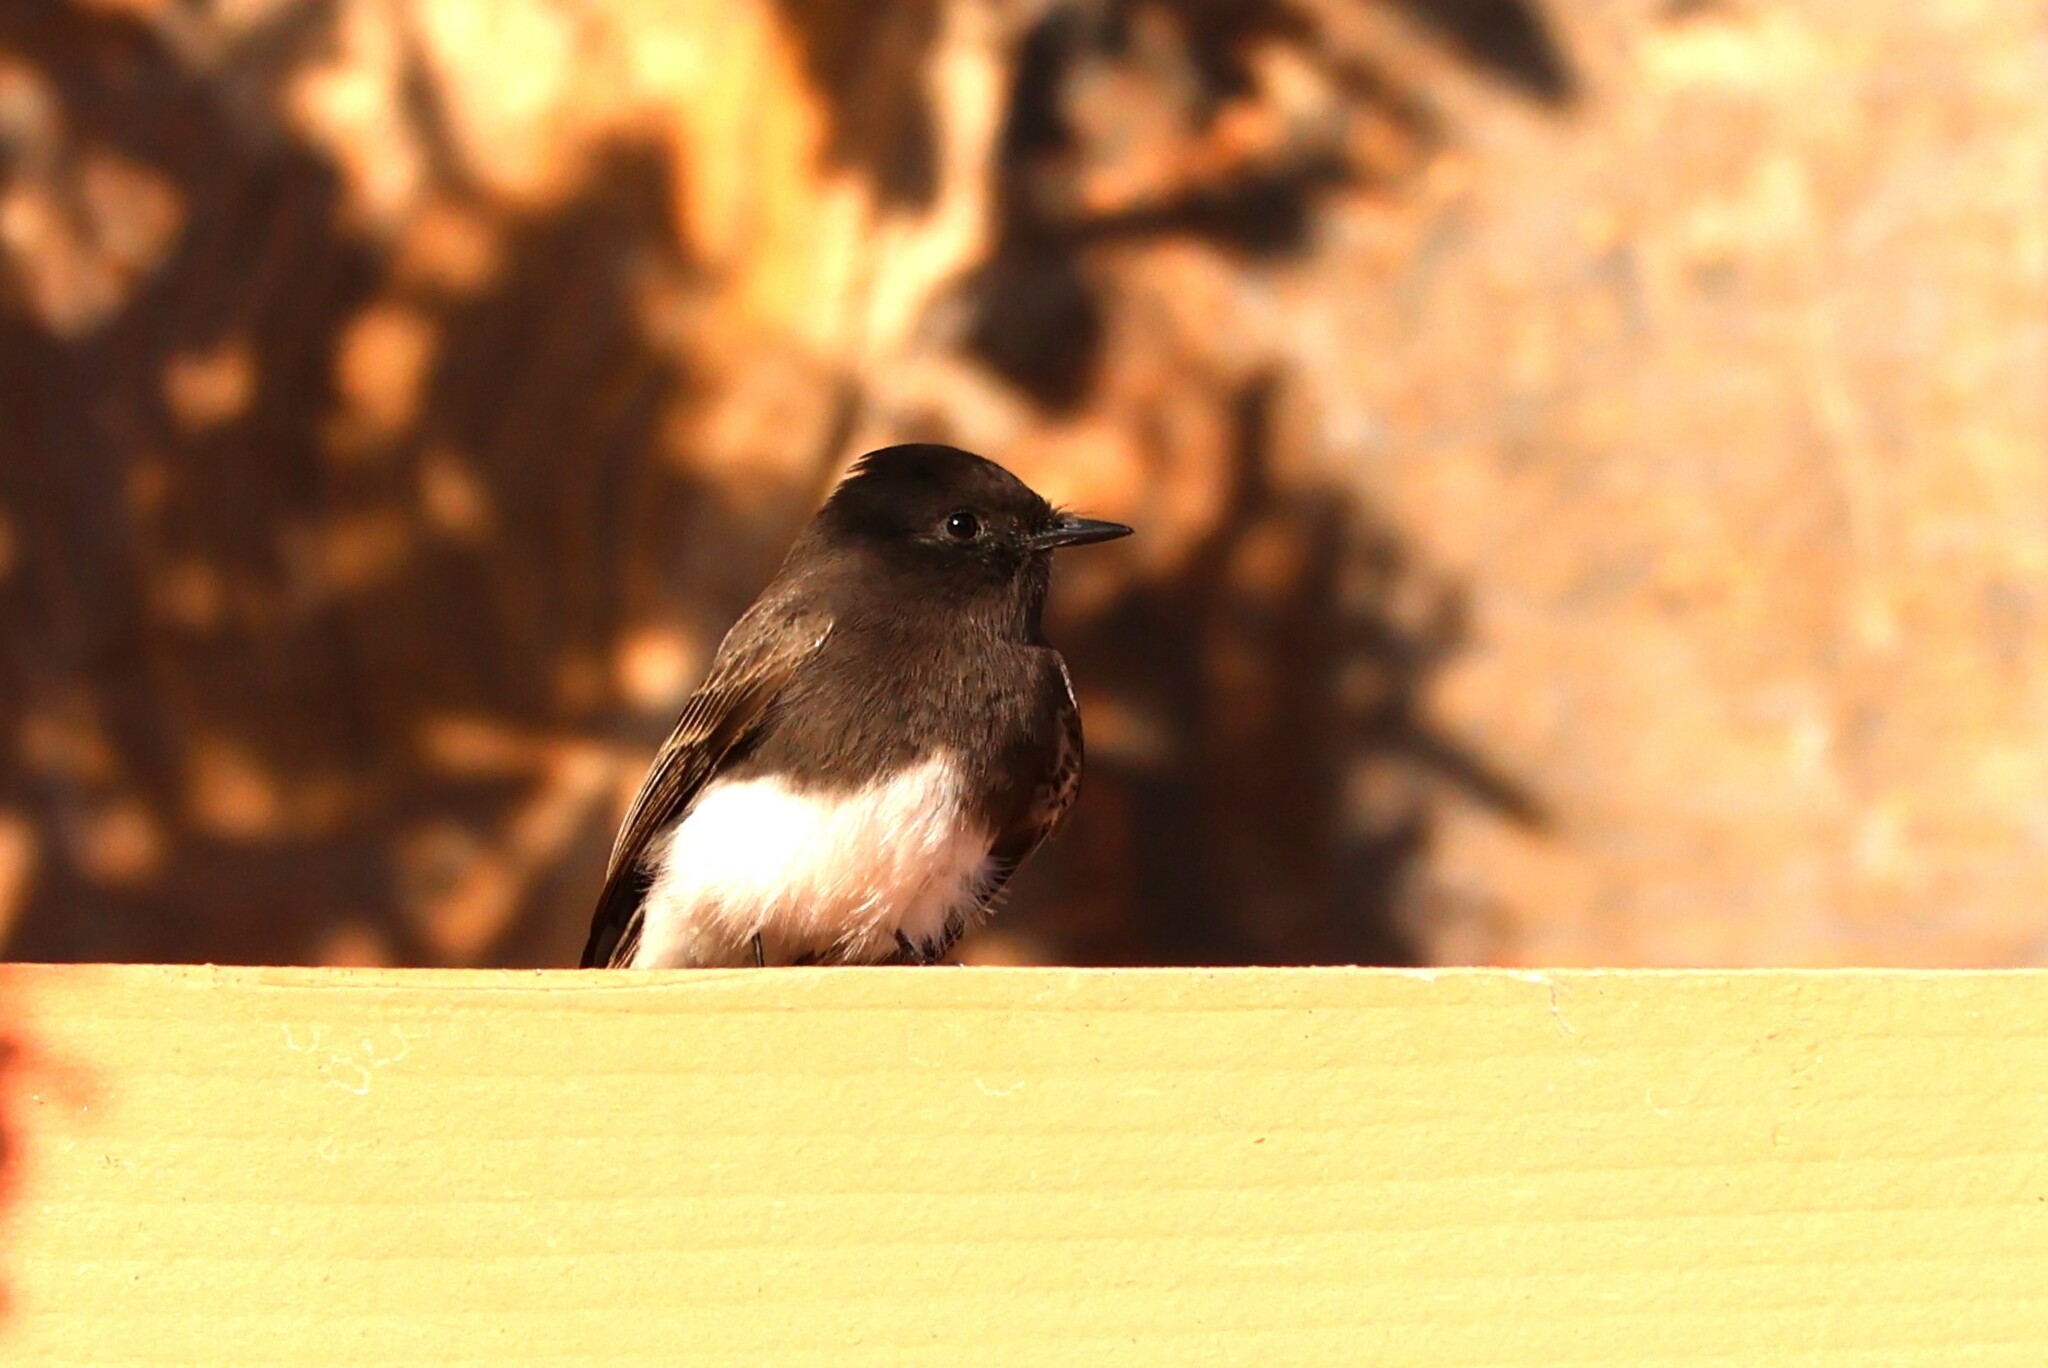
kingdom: Animalia
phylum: Chordata
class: Aves
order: Passeriformes
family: Tyrannidae
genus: Sayornis
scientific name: Sayornis nigricans
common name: Black phoebe
